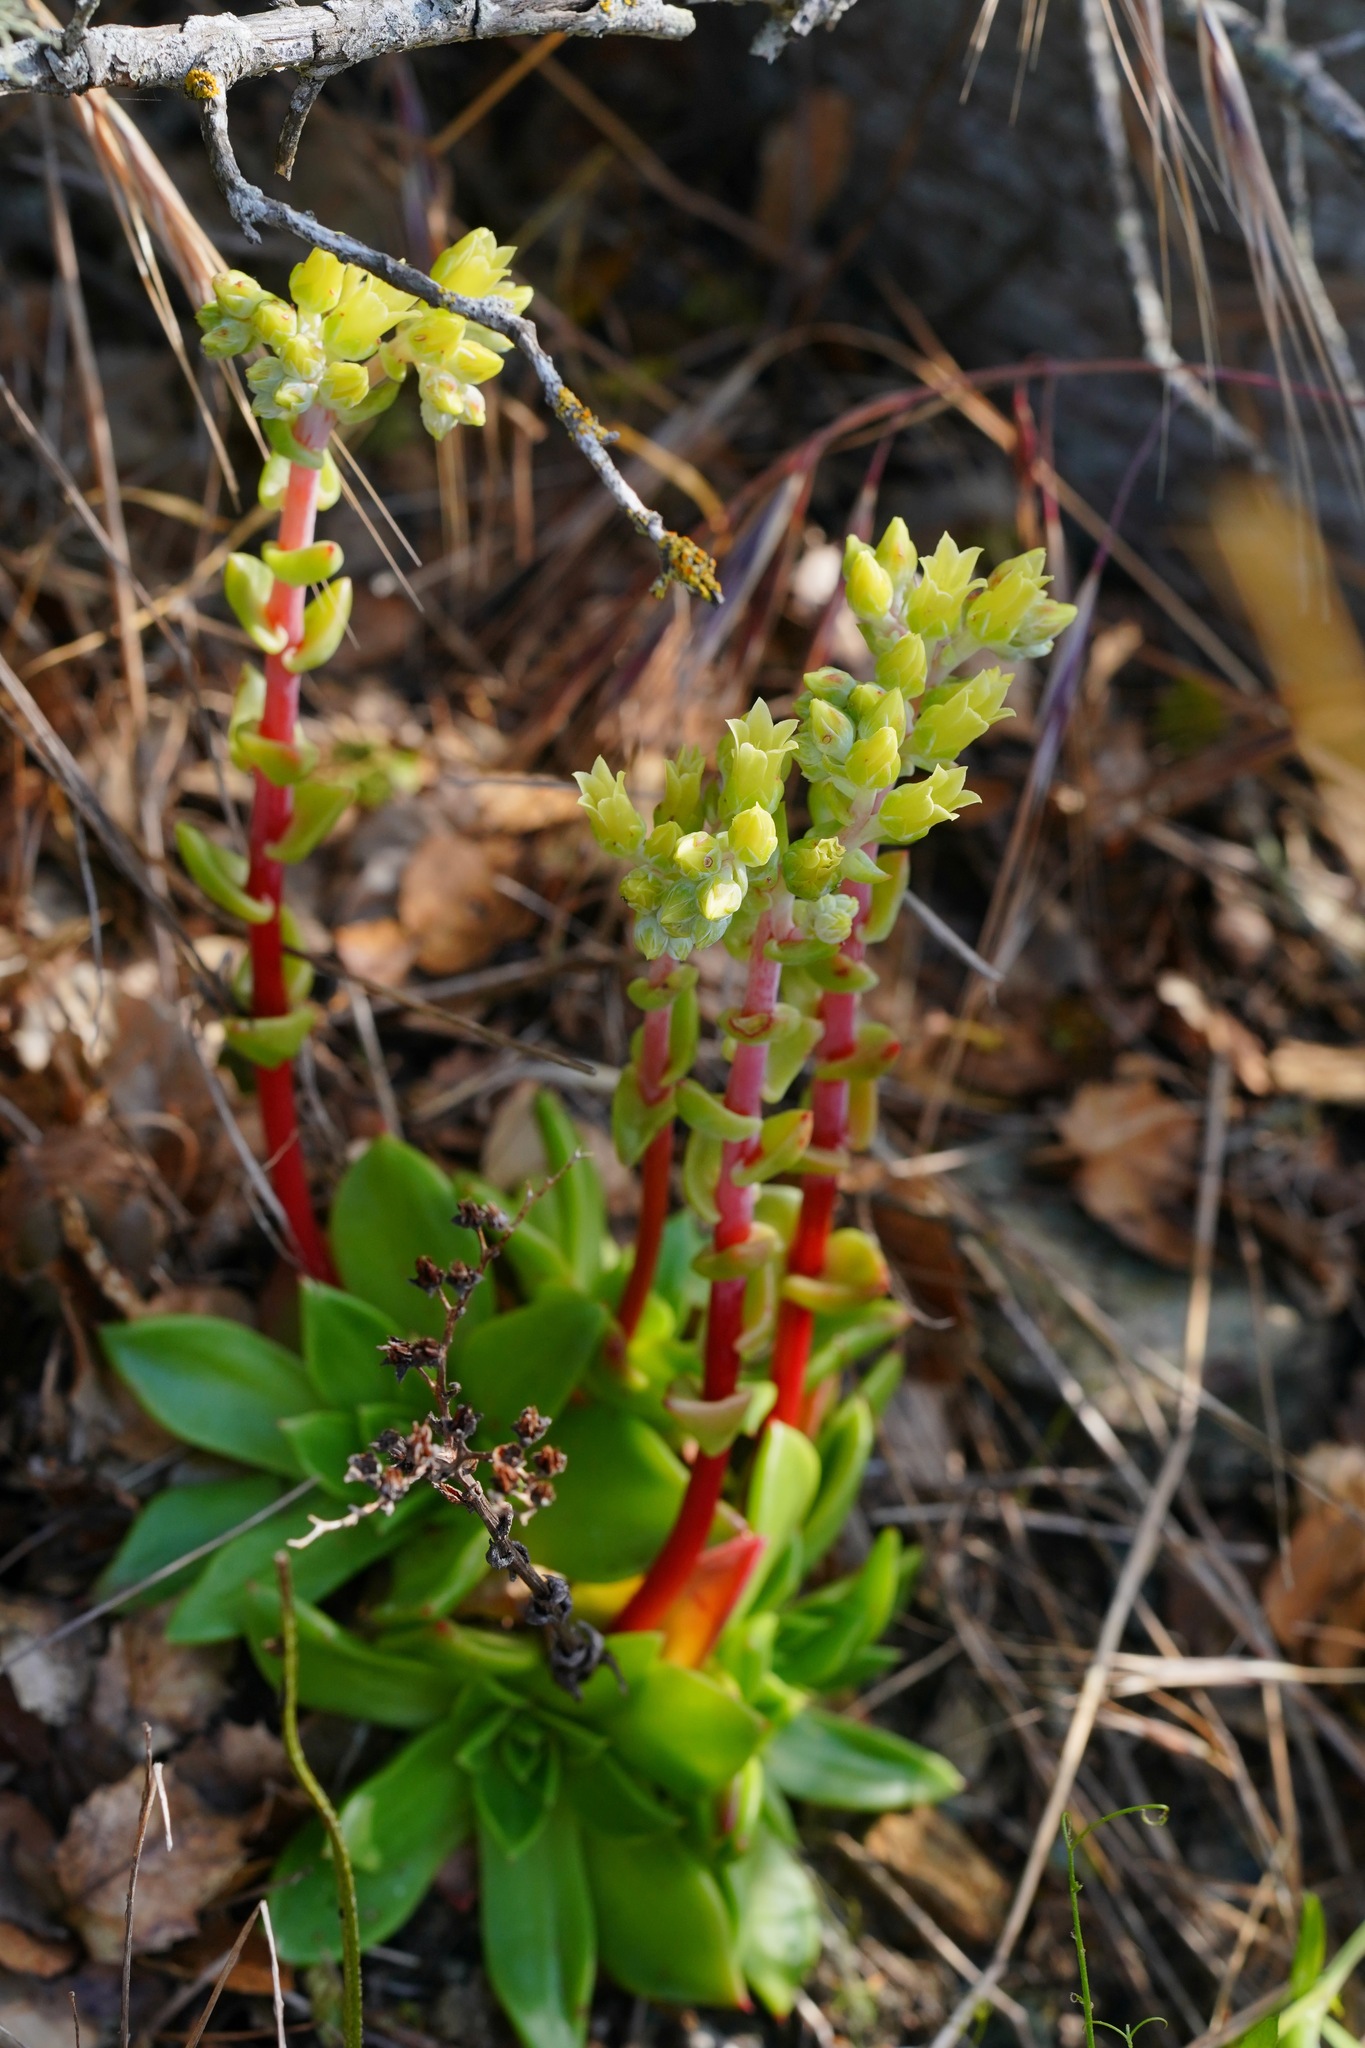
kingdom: Plantae
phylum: Tracheophyta
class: Magnoliopsida
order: Saxifragales
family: Crassulaceae
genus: Dudleya
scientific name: Dudleya farinosa
